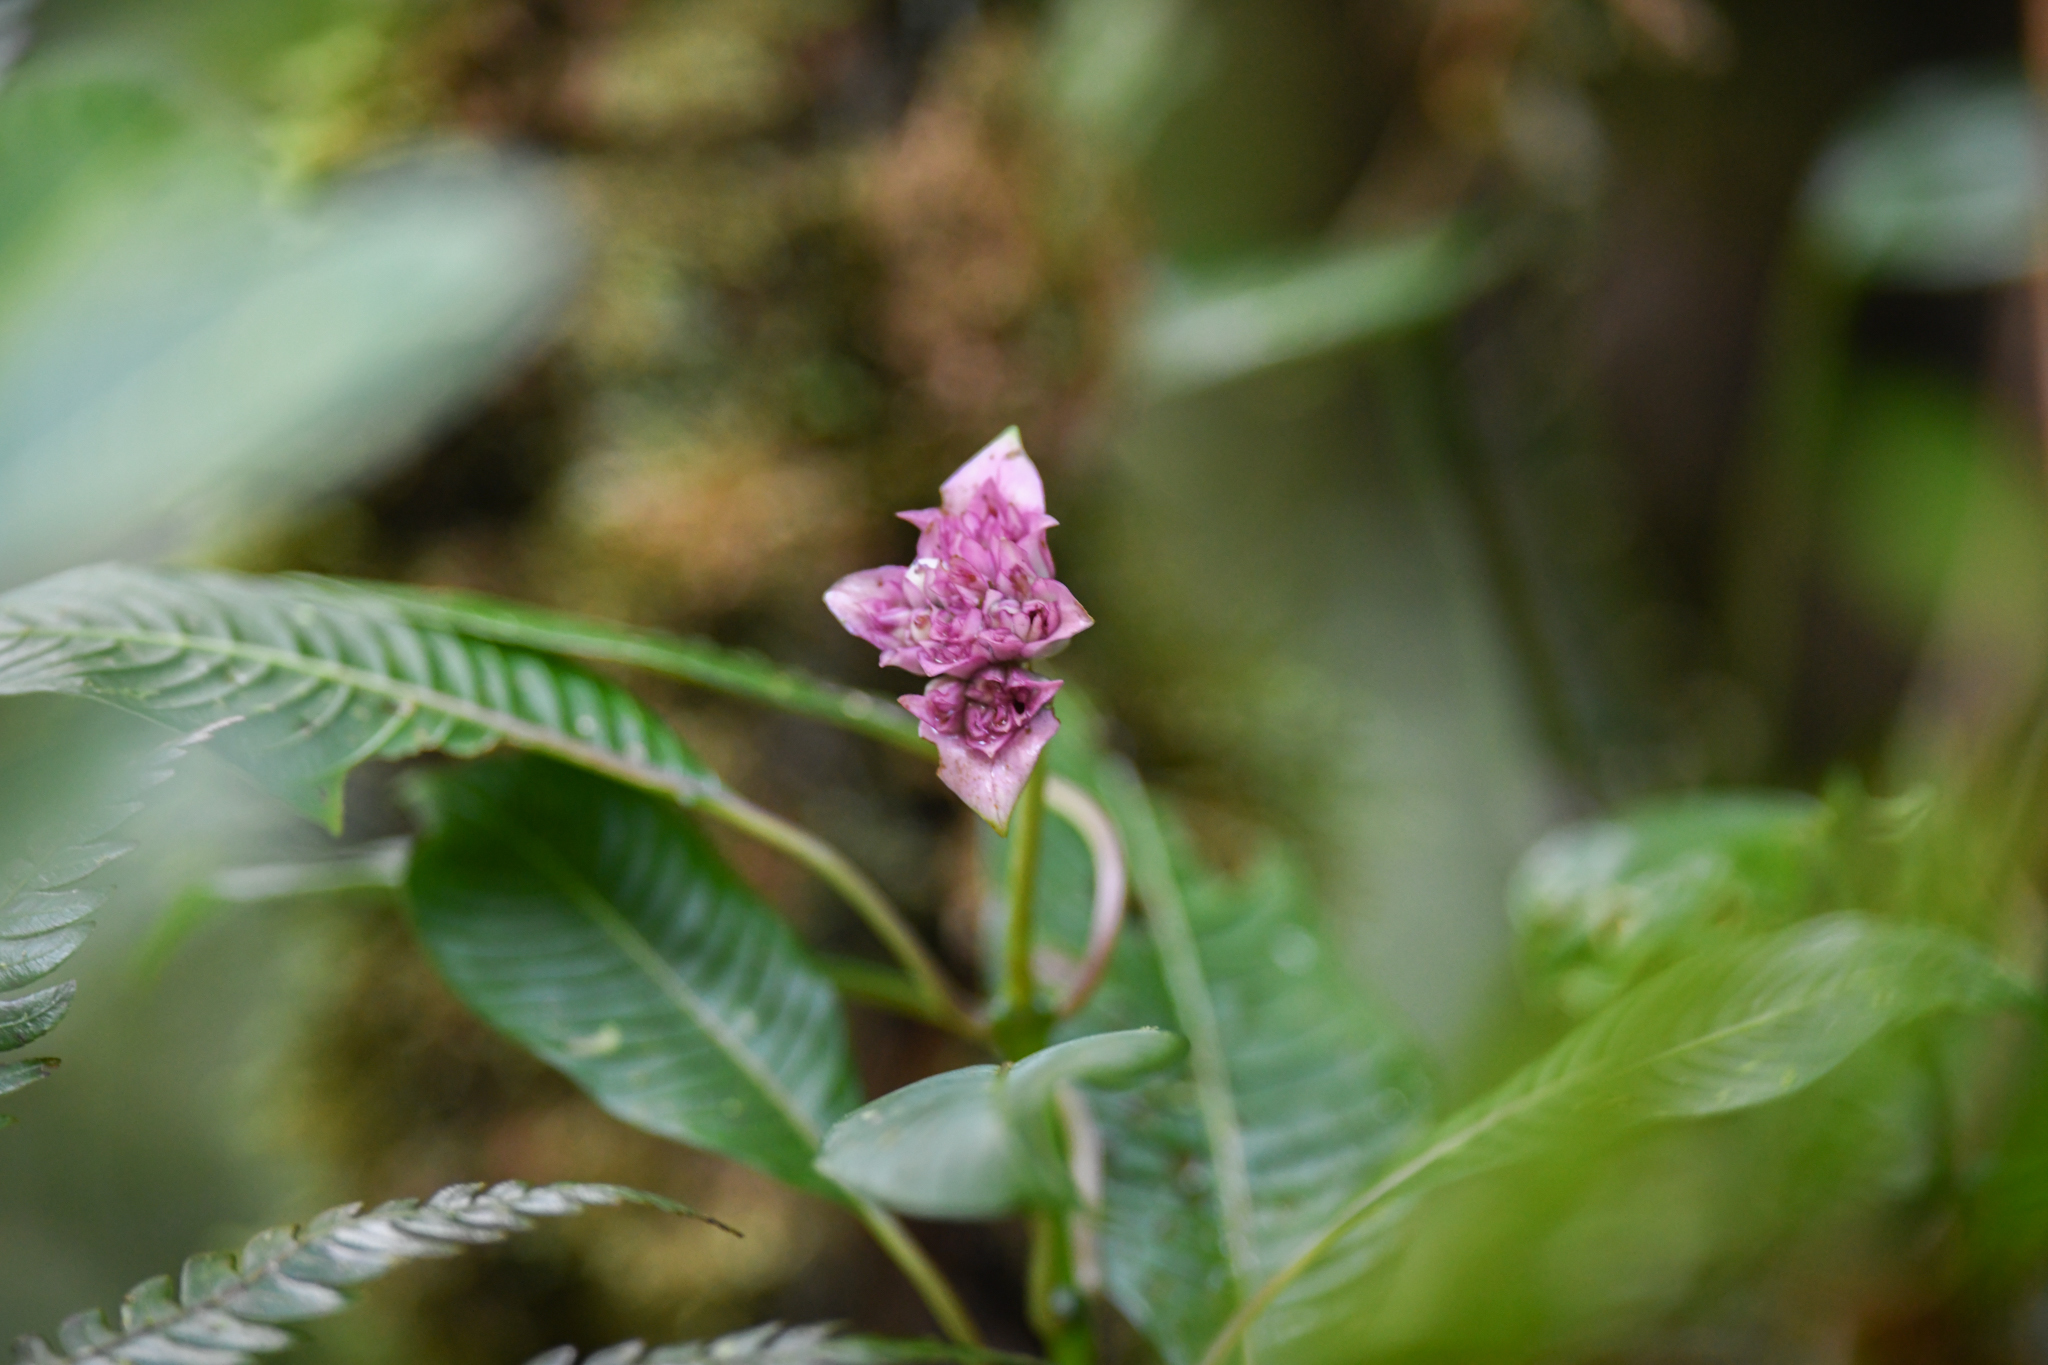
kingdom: Plantae
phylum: Tracheophyta
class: Magnoliopsida
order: Gentianales
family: Rubiaceae
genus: Palicourea
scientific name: Palicourea chiriquiensis
